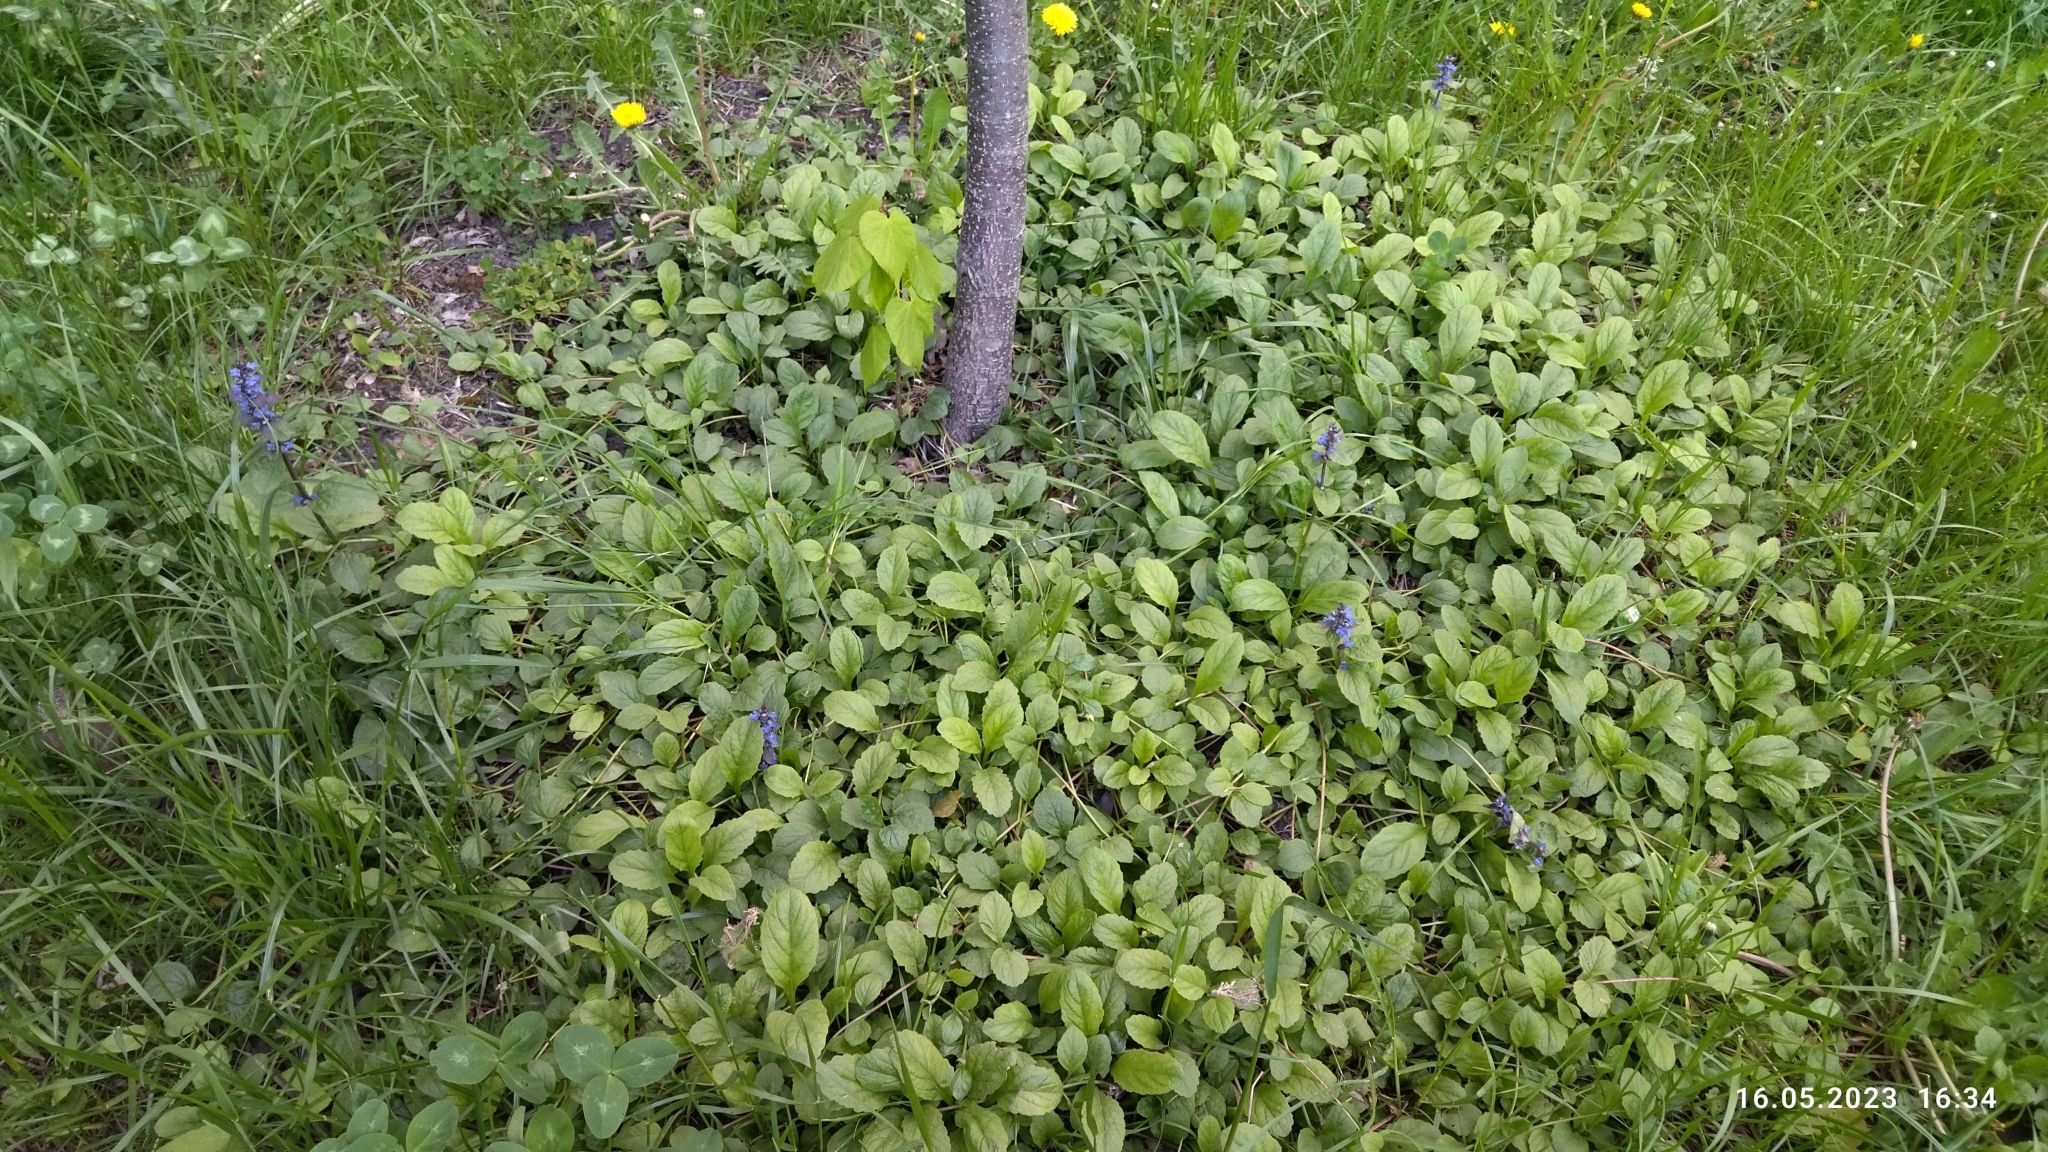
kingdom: Plantae
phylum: Tracheophyta
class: Magnoliopsida
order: Lamiales
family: Lamiaceae
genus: Ajuga
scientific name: Ajuga reptans
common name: Bugle
